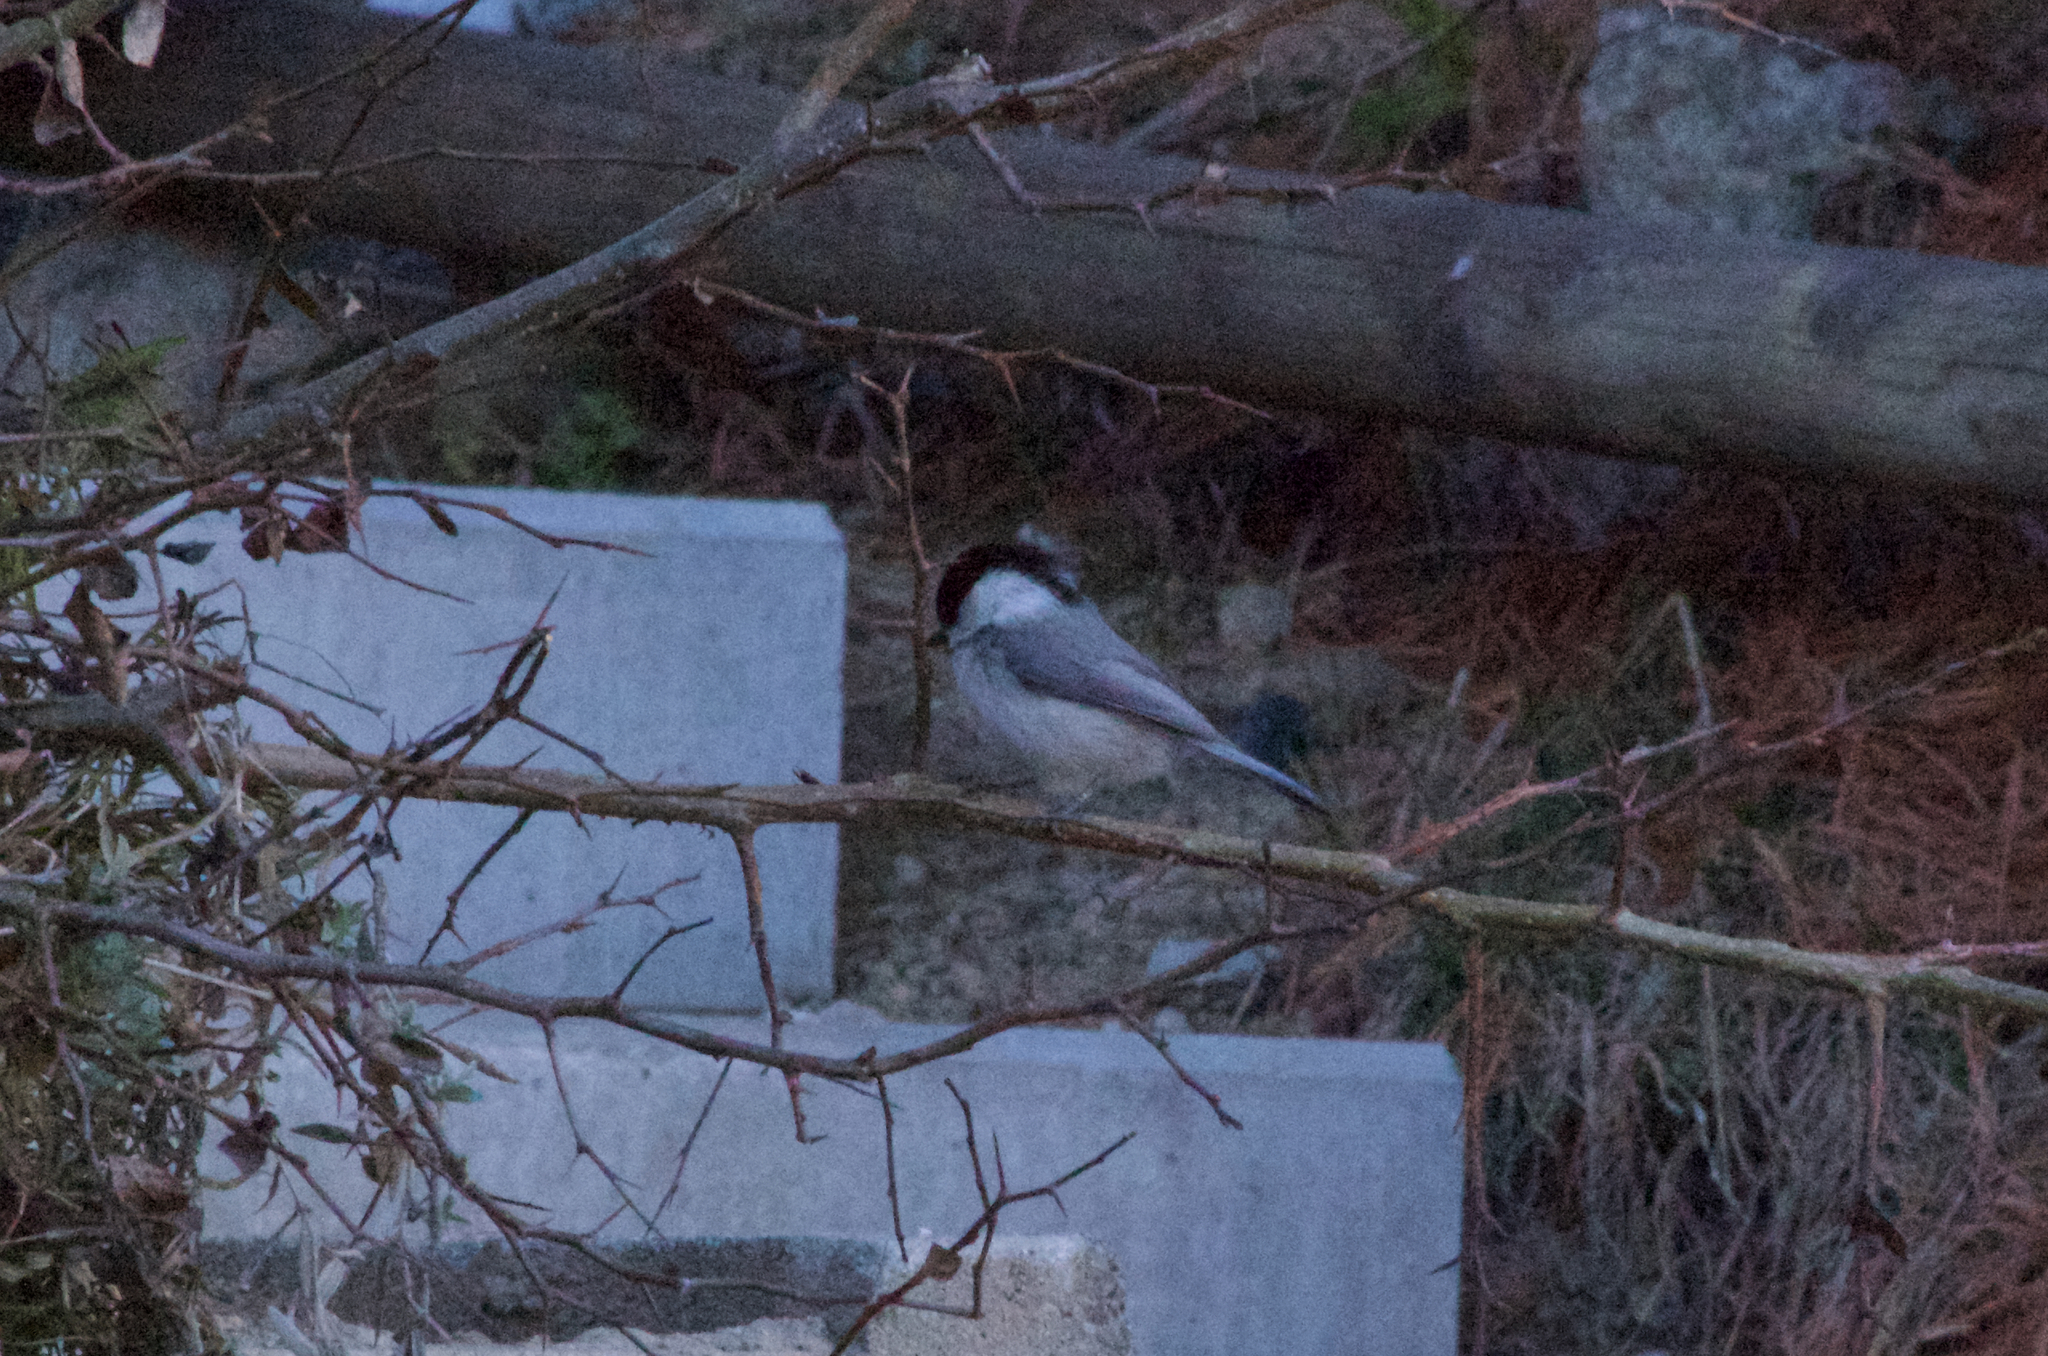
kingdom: Animalia
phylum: Chordata
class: Aves
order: Passeriformes
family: Paridae
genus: Poecile
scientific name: Poecile montanus
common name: Willow tit
